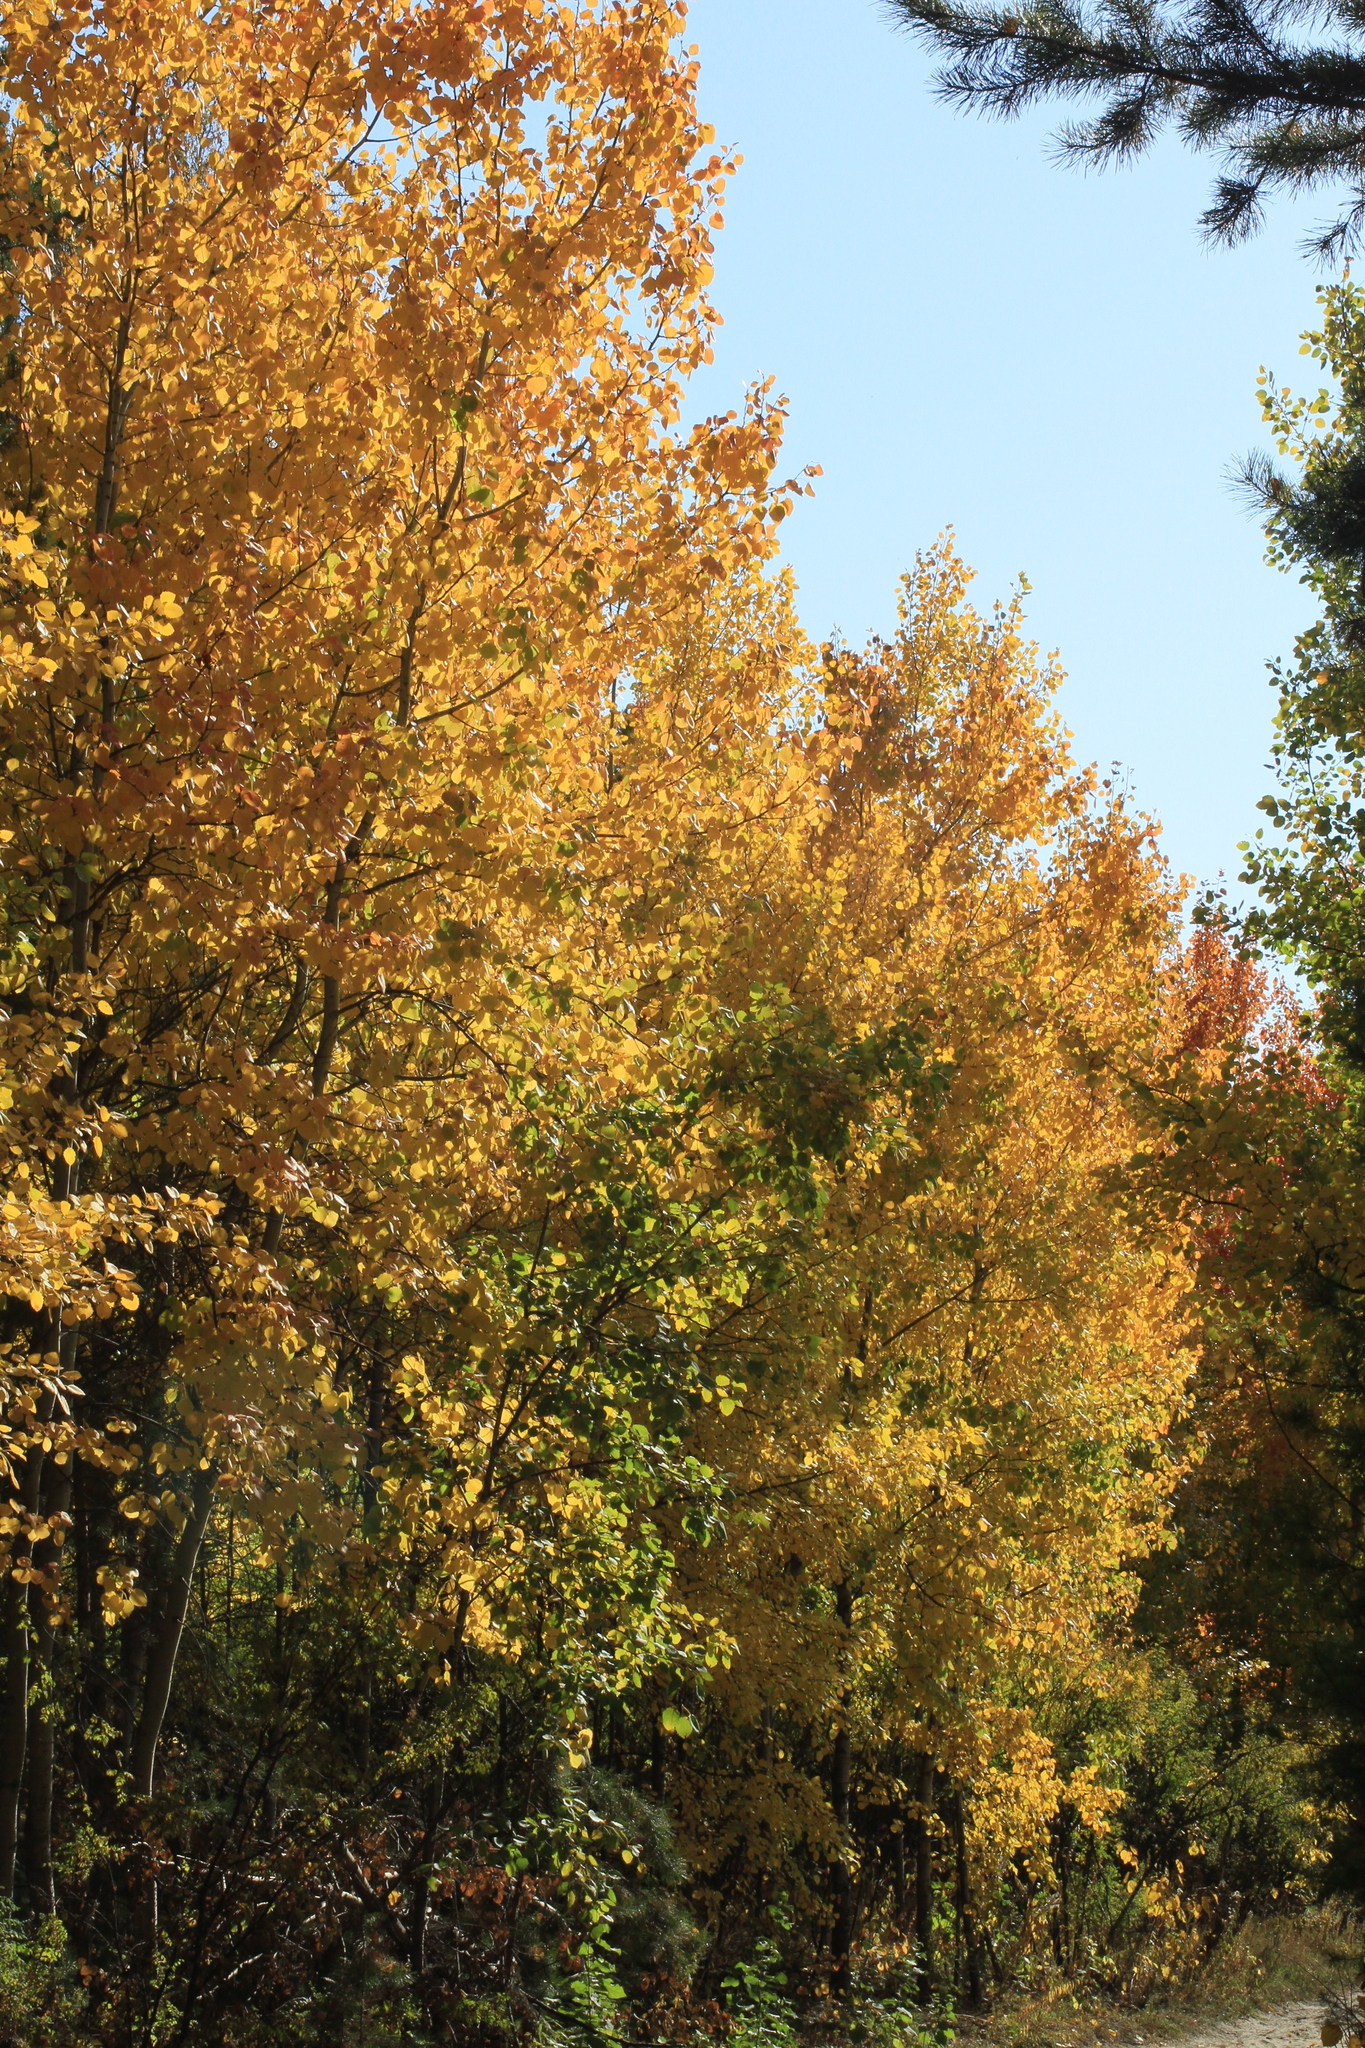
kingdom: Plantae
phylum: Tracheophyta
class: Magnoliopsida
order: Malpighiales
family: Salicaceae
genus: Populus
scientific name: Populus tremula
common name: European aspen
